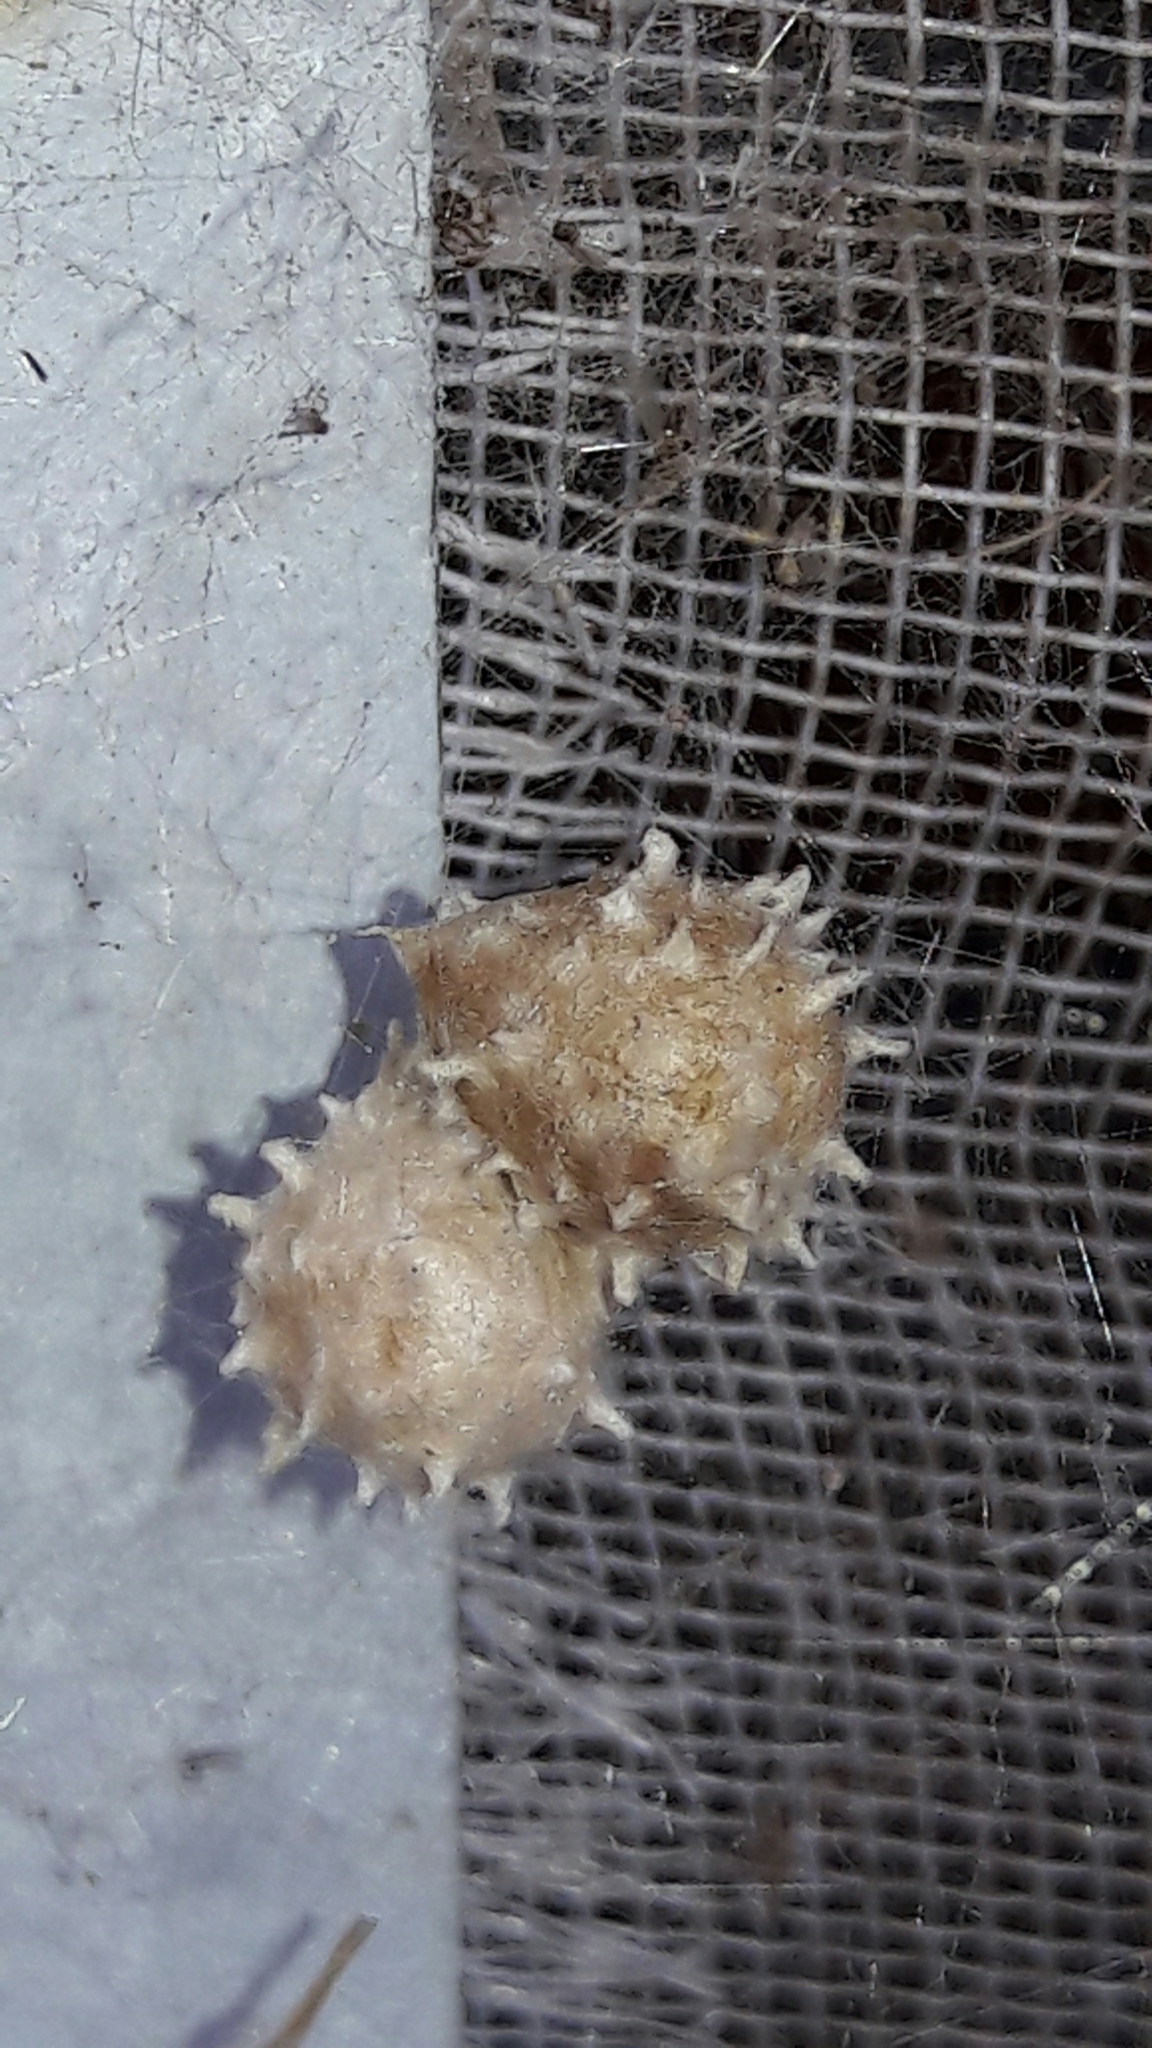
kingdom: Animalia
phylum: Arthropoda
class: Arachnida
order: Araneae
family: Theridiidae
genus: Latrodectus
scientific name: Latrodectus geometricus
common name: Brown widow spider
